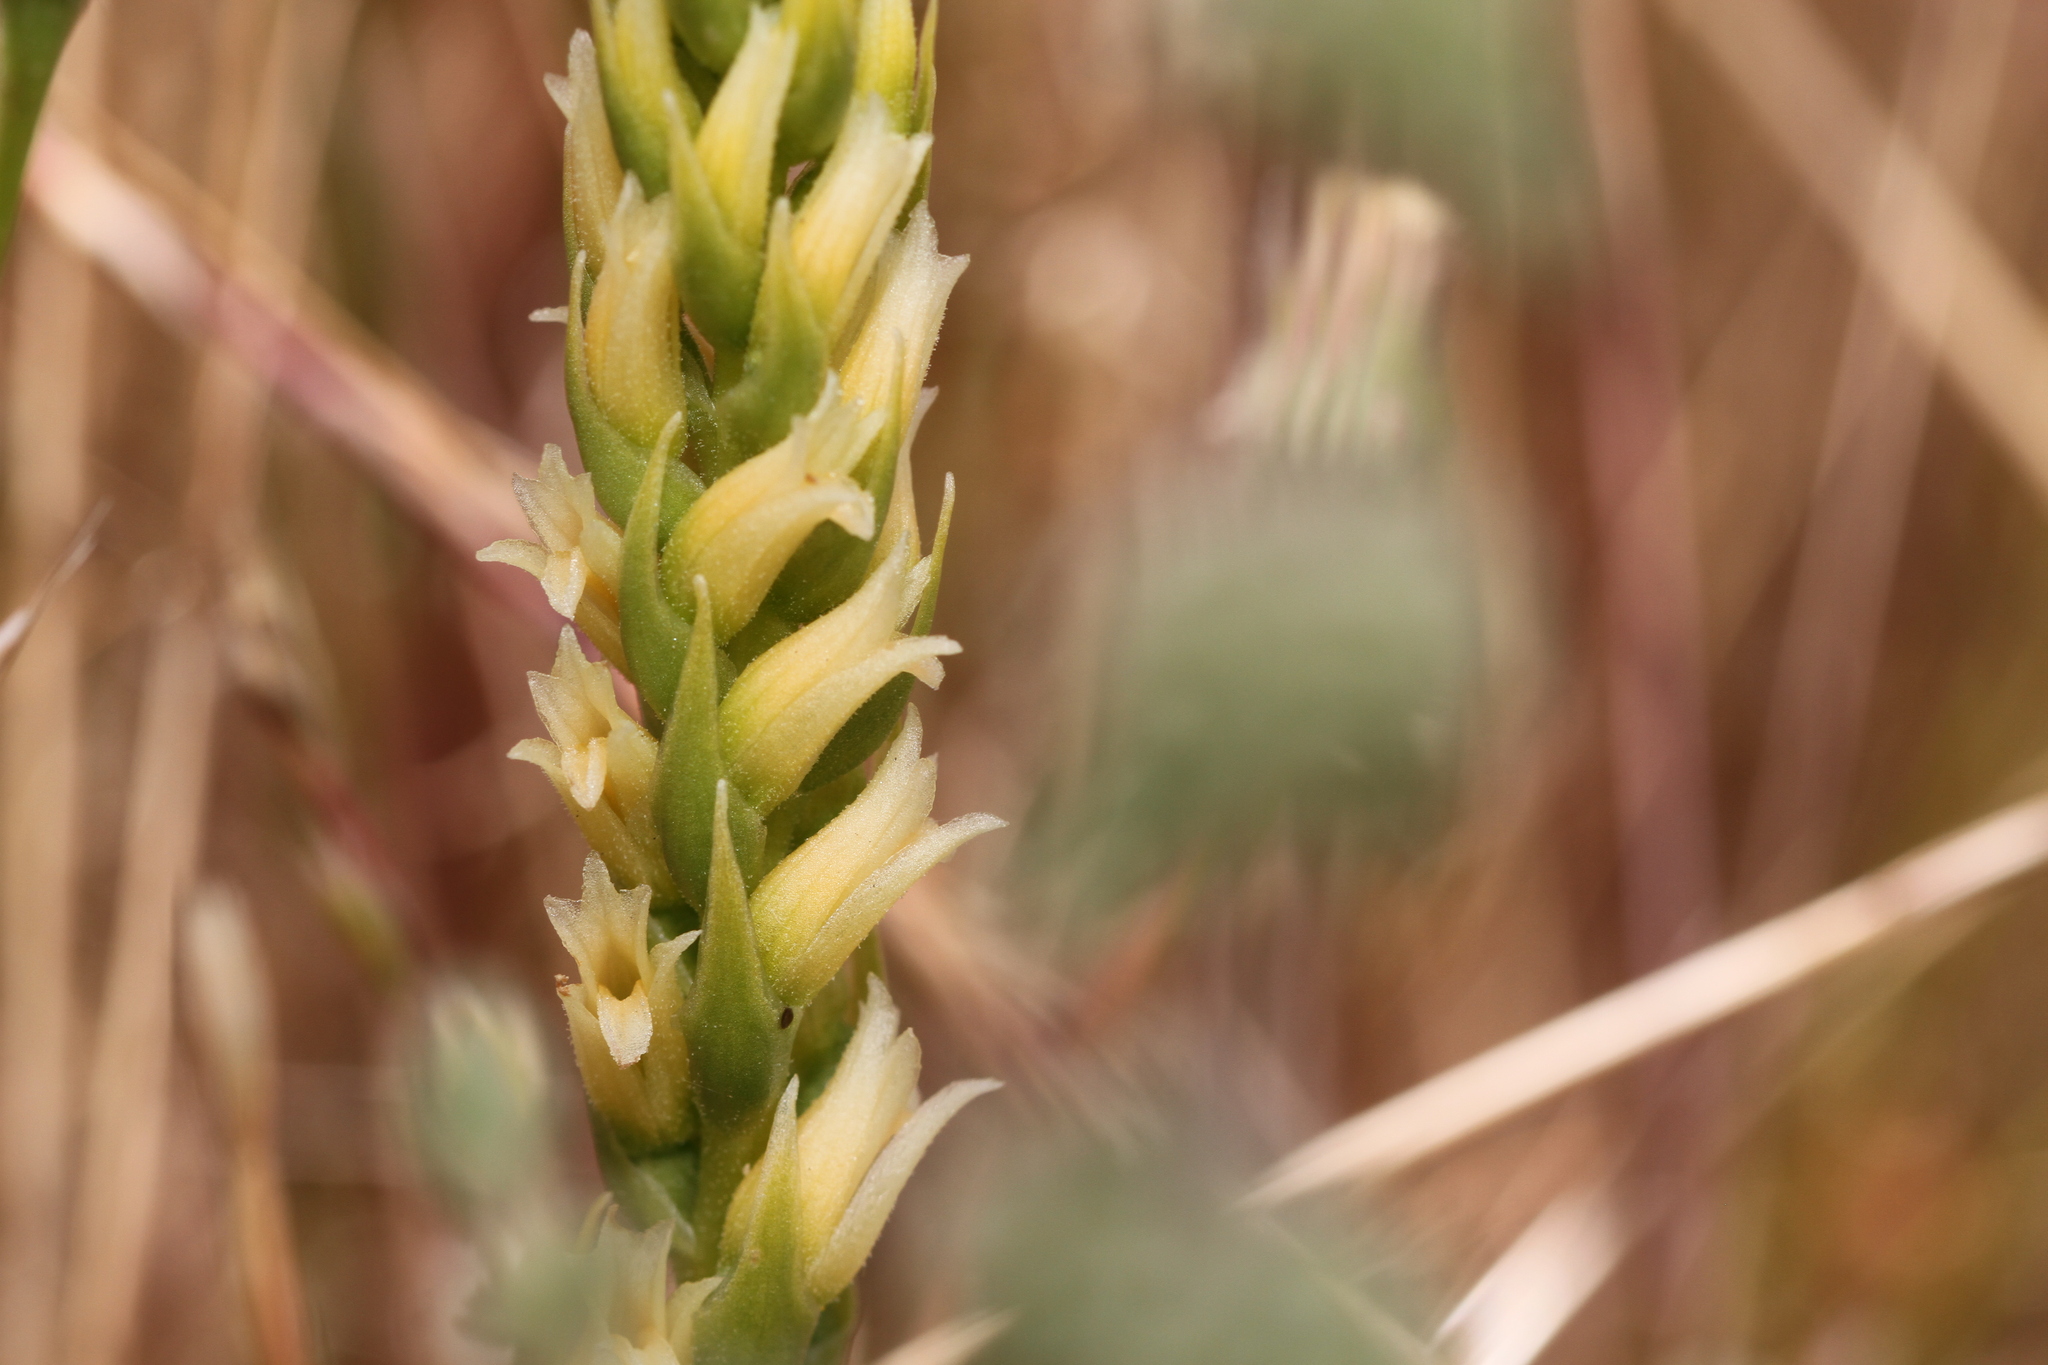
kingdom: Plantae
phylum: Tracheophyta
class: Liliopsida
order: Asparagales
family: Orchidaceae
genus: Spiranthes
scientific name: Spiranthes porrifolia
